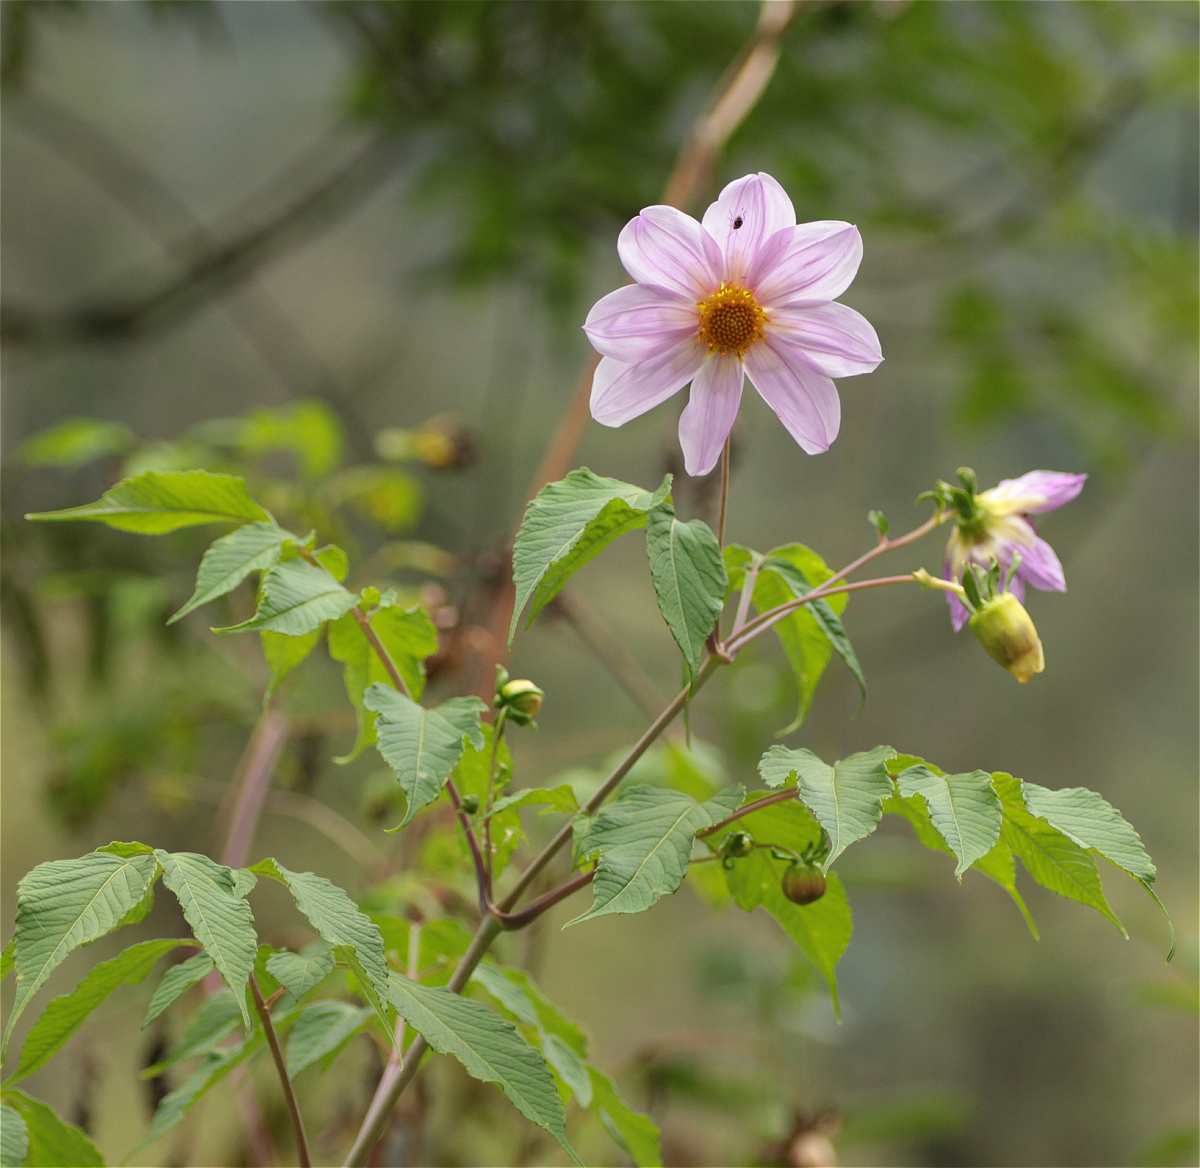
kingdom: Plantae
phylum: Tracheophyta
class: Magnoliopsida
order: Asterales
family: Asteraceae
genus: Dahlia
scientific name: Dahlia imperialis
